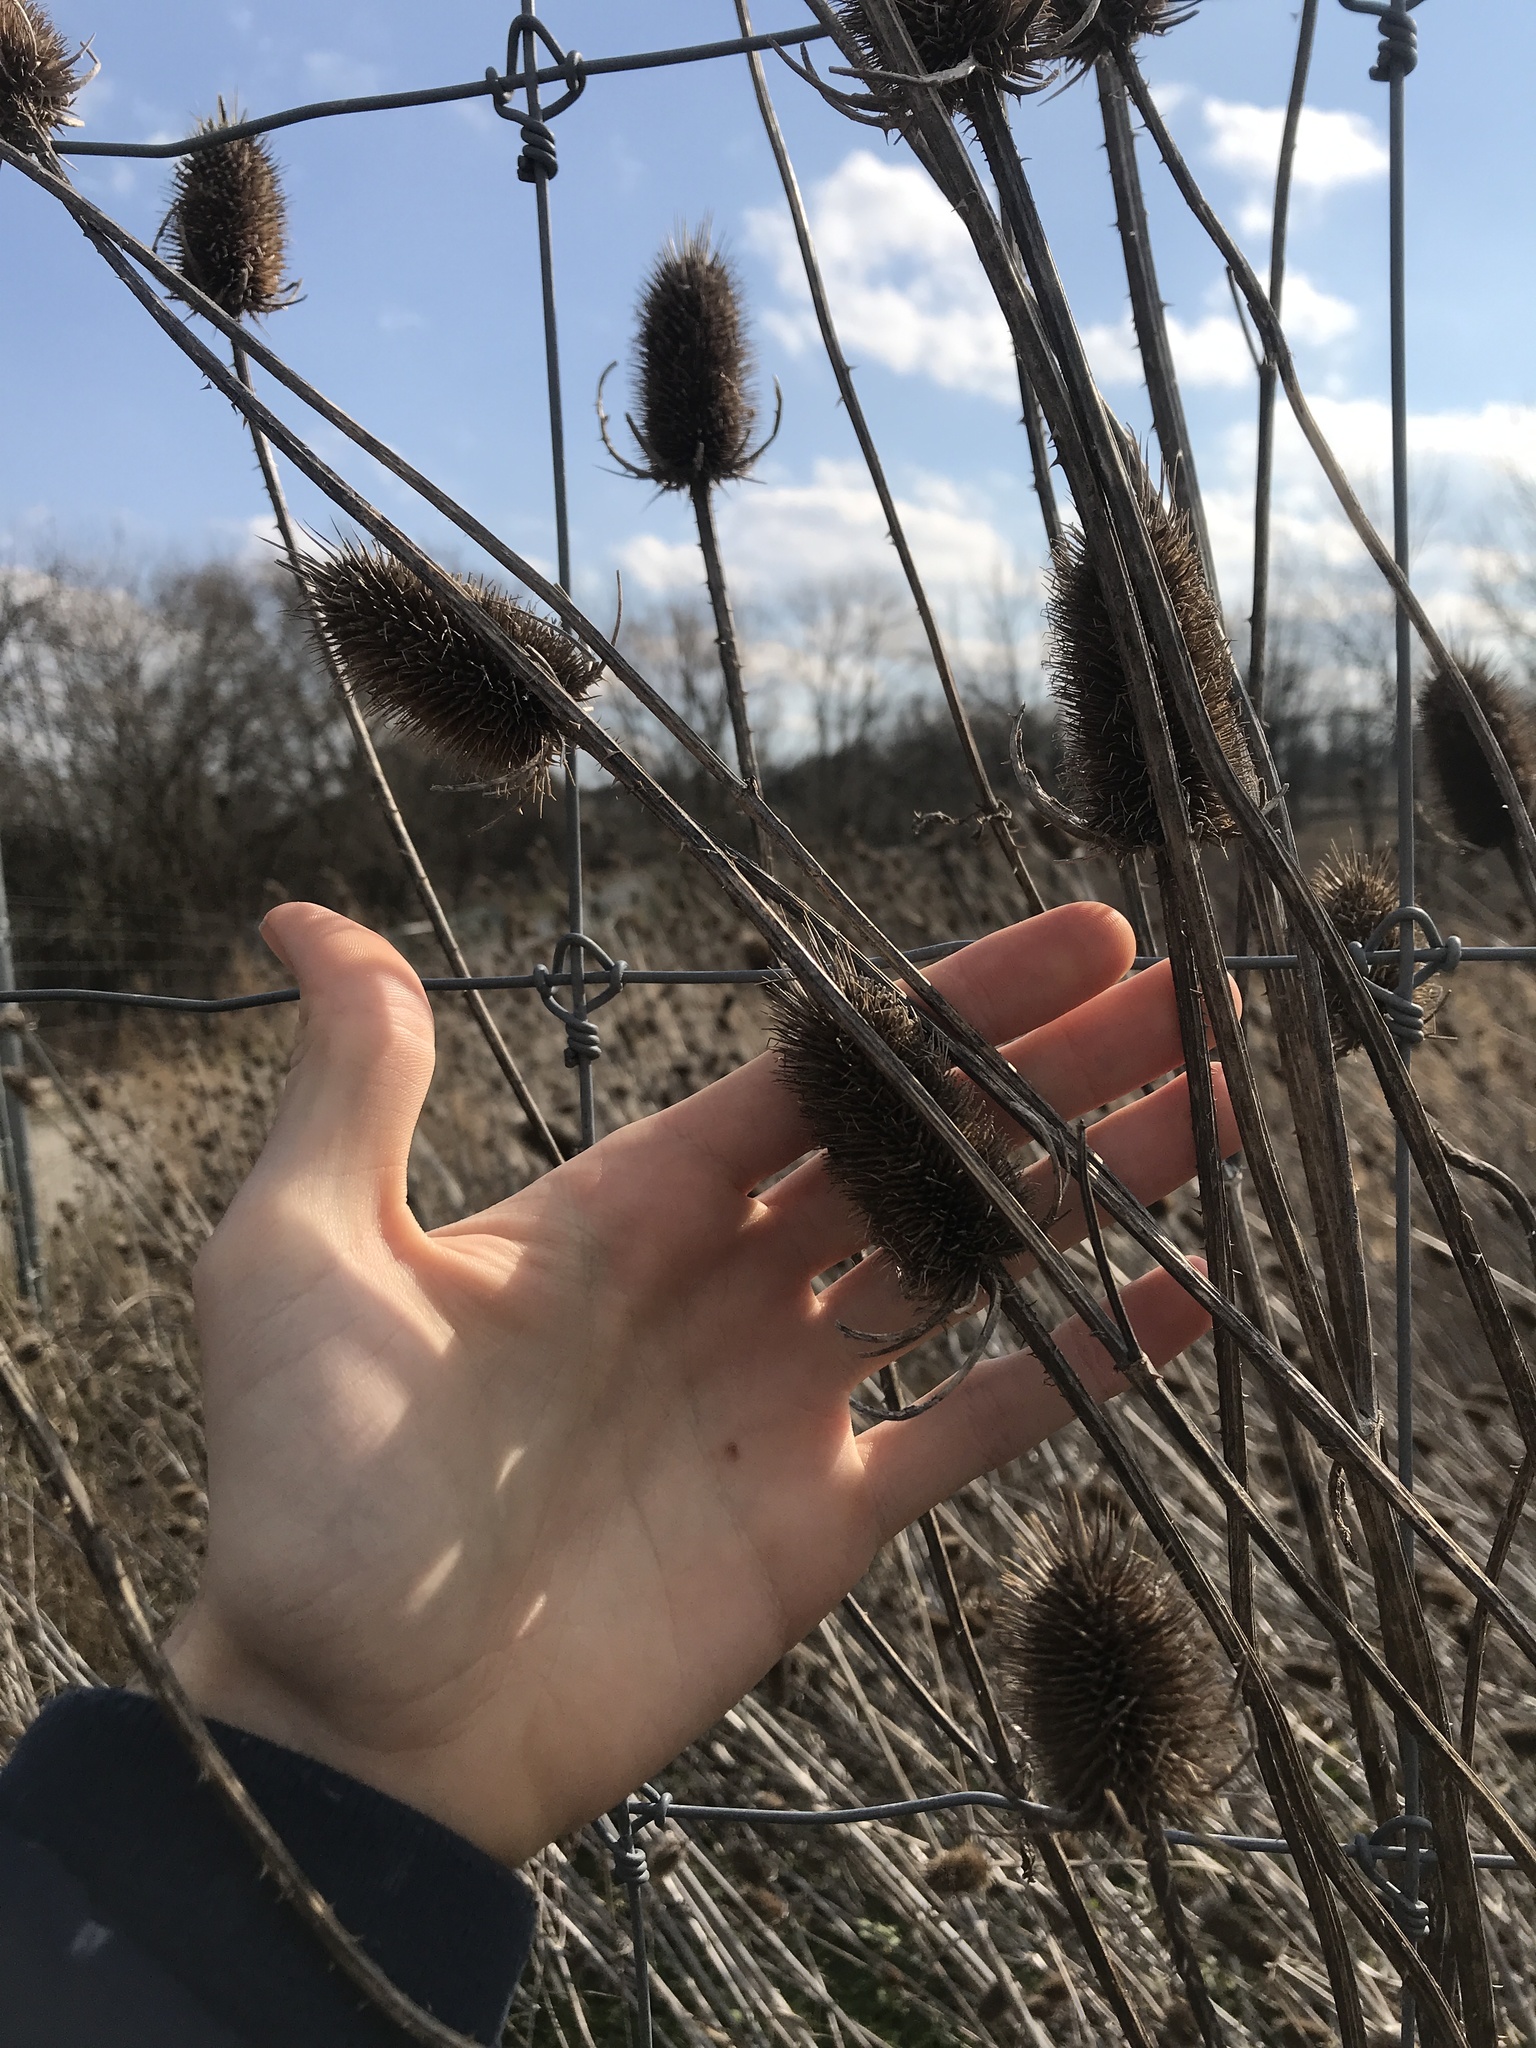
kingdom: Plantae
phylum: Tracheophyta
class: Magnoliopsida
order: Dipsacales
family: Caprifoliaceae
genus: Dipsacus
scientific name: Dipsacus fullonum
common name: Teasel
